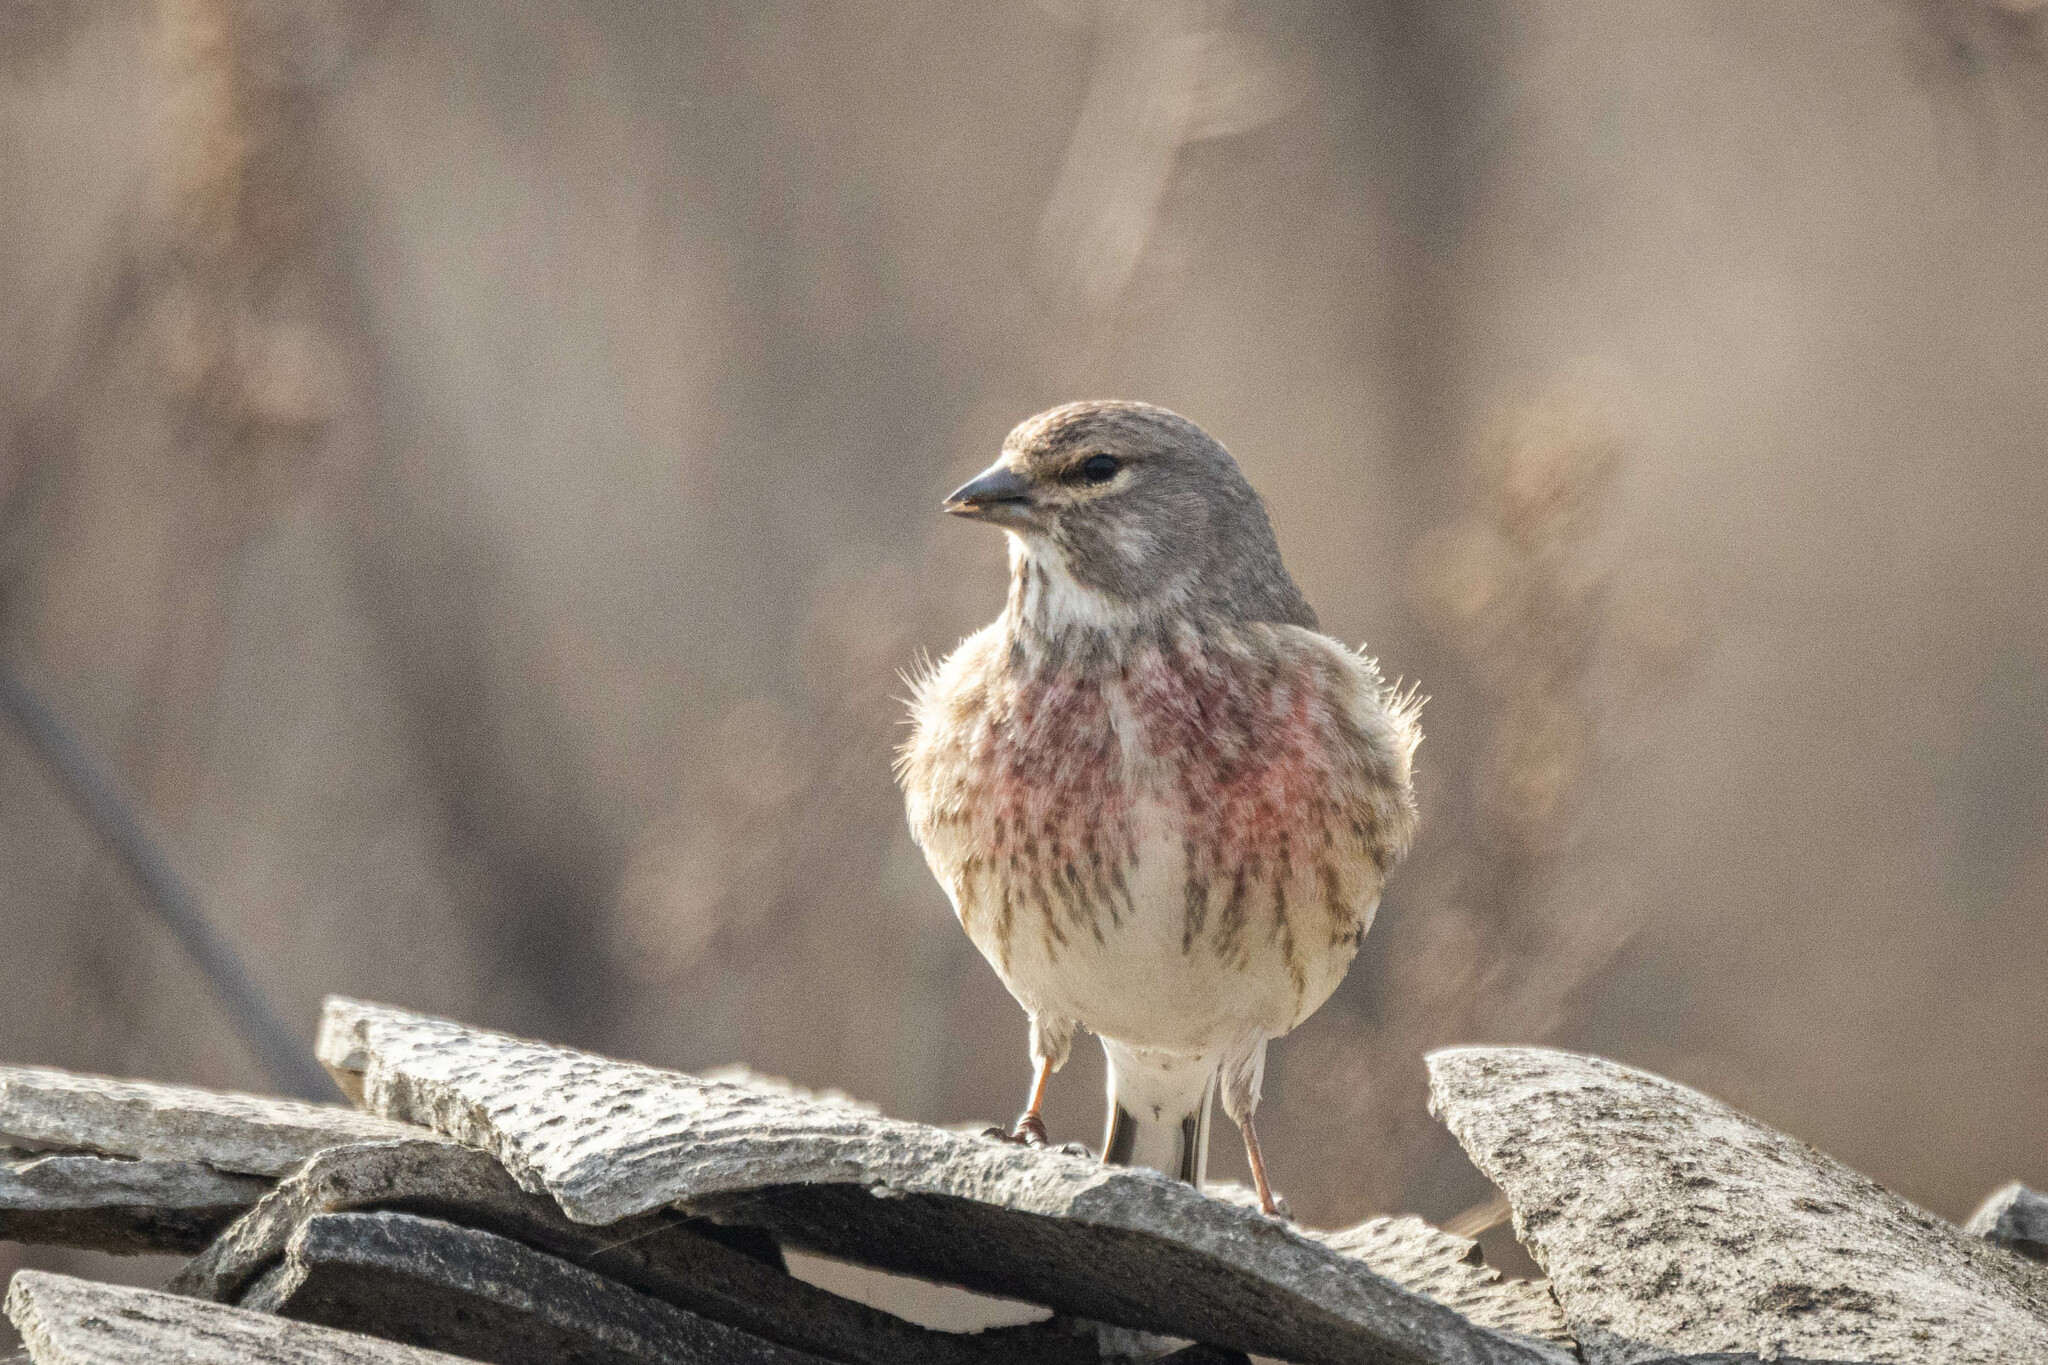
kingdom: Animalia
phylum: Chordata
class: Aves
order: Passeriformes
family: Fringillidae
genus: Linaria
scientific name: Linaria cannabina
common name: Common linnet
